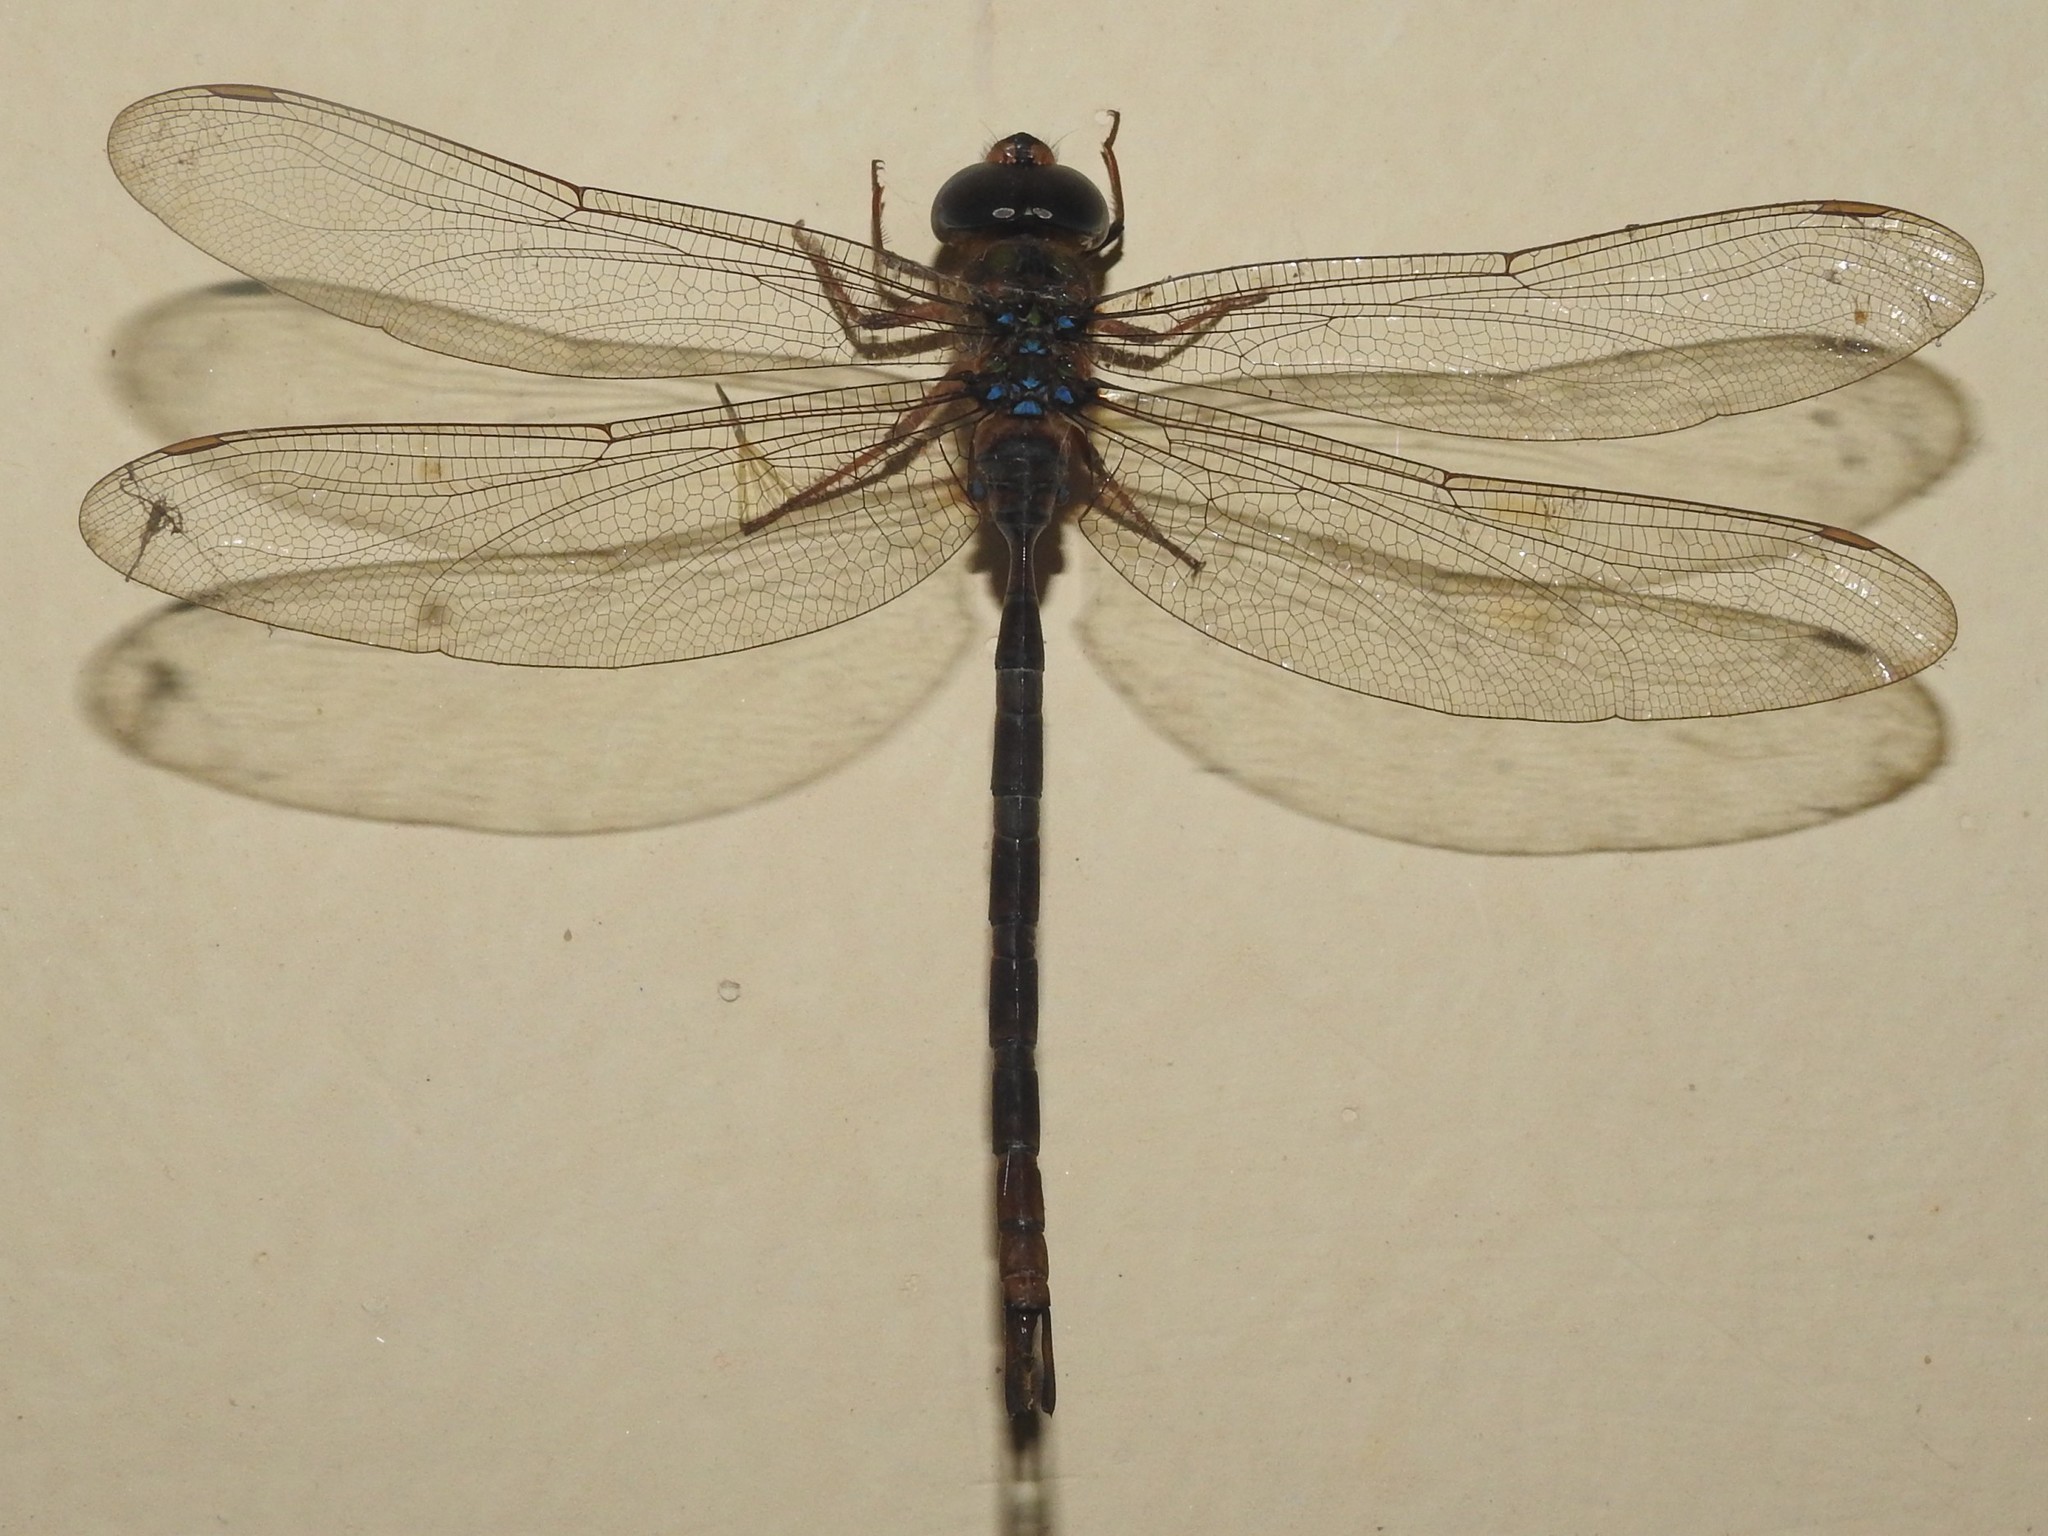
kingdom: Animalia
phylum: Arthropoda
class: Insecta
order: Odonata
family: Aeshnidae
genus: Gynacantha
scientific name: Gynacantha dravida
